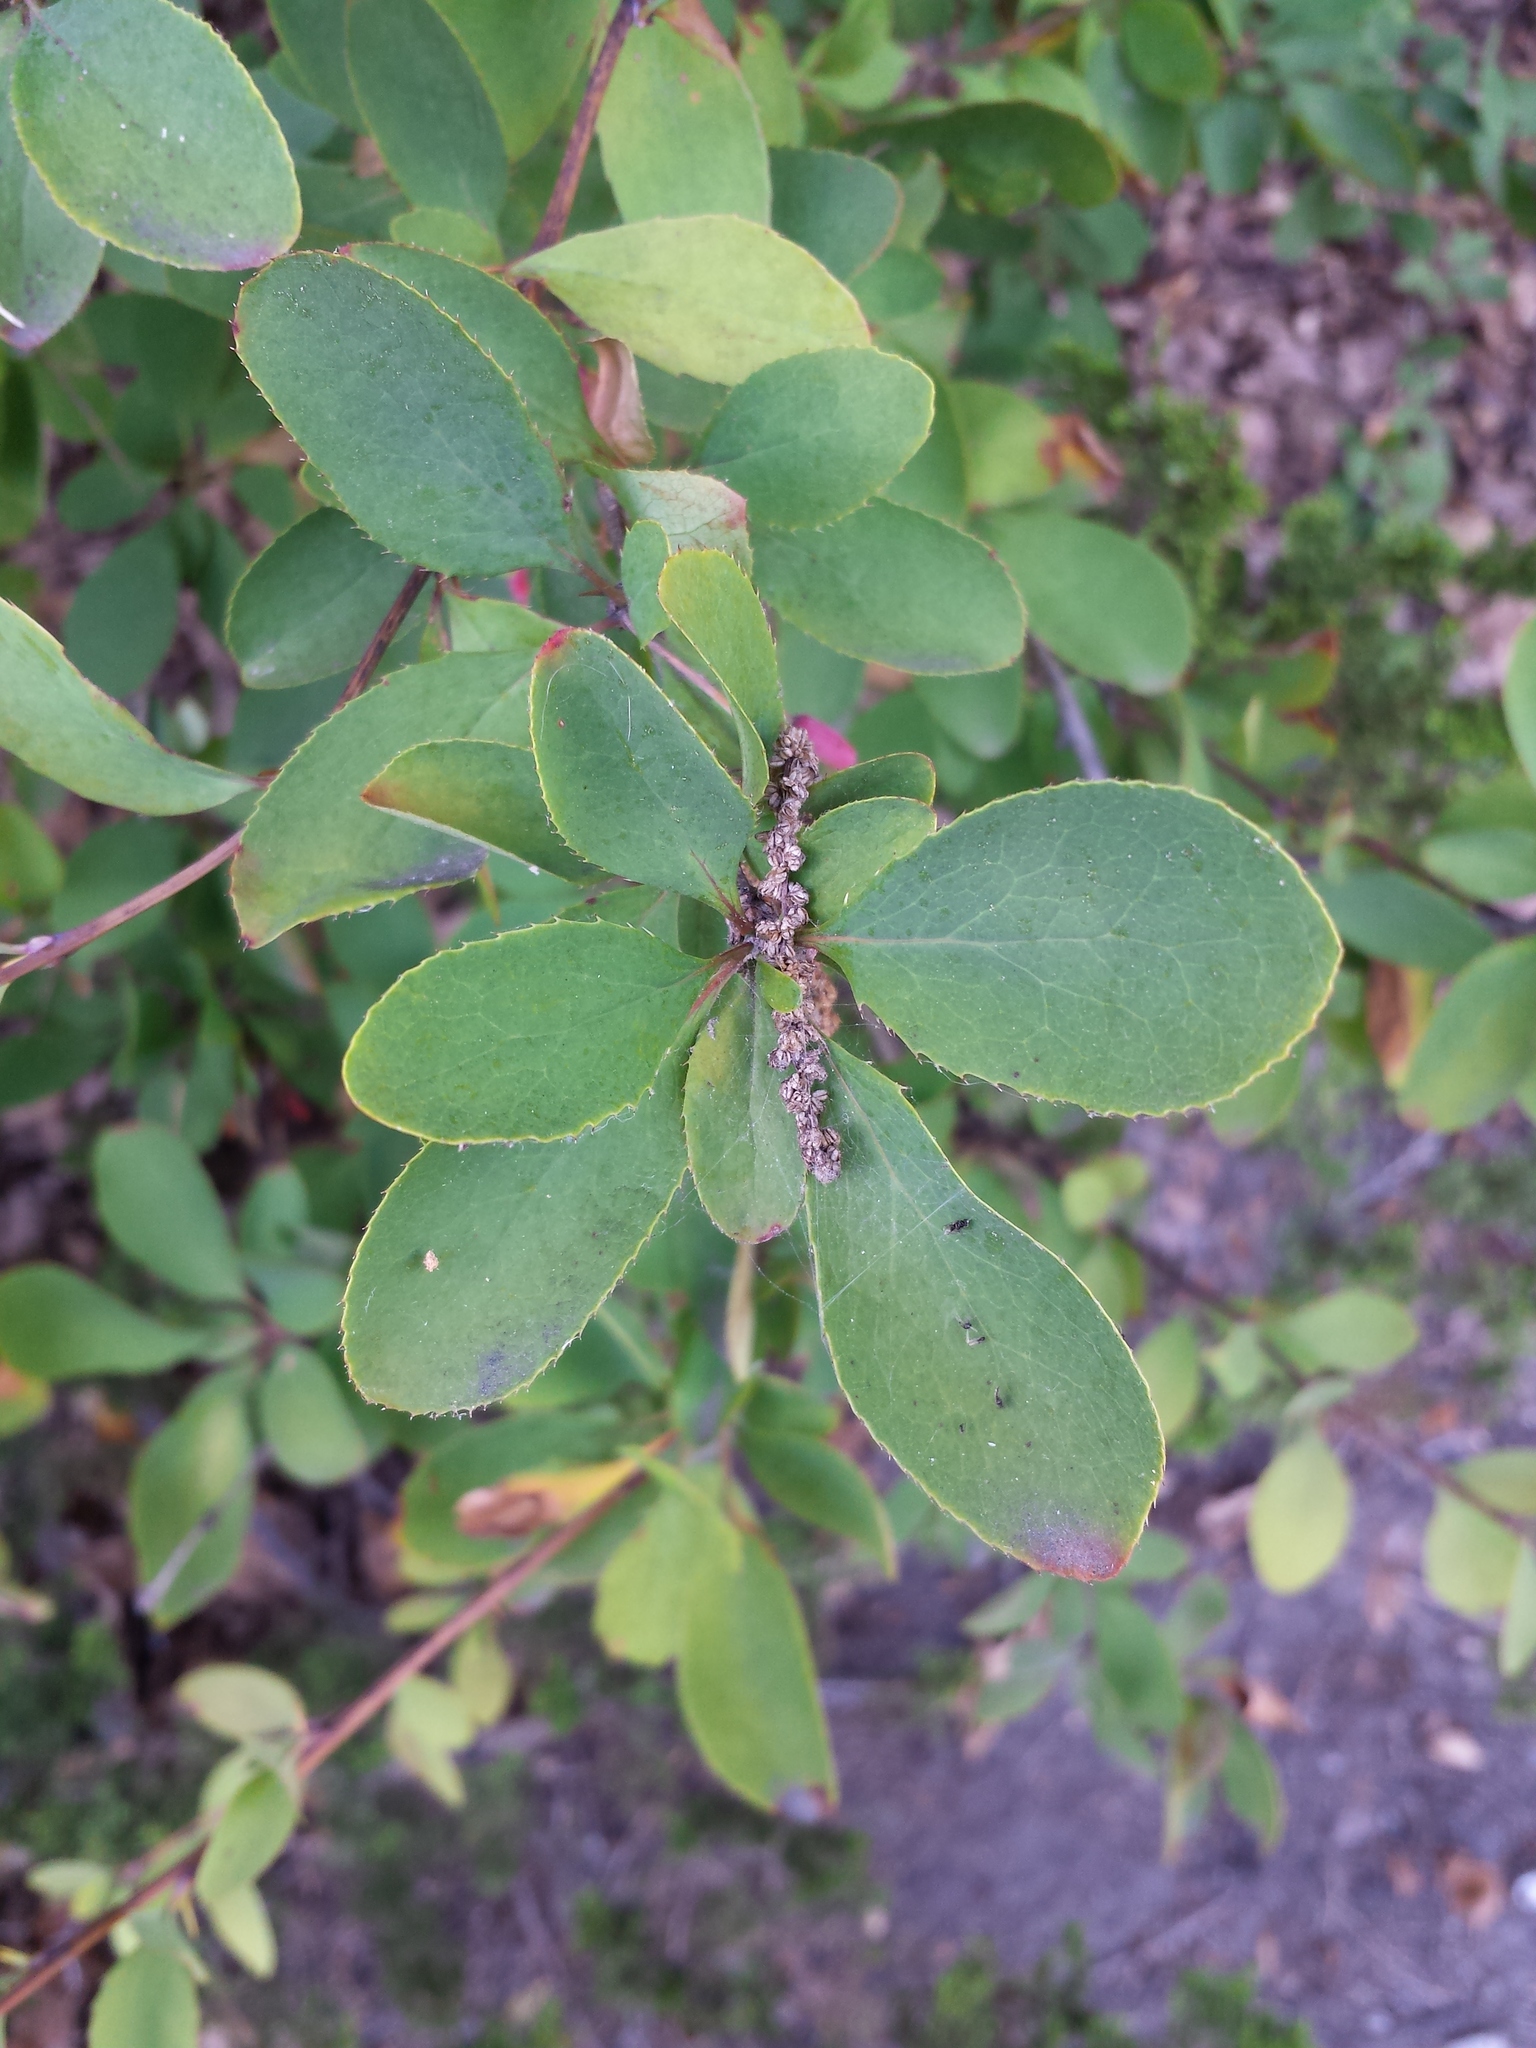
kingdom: Plantae
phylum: Tracheophyta
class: Magnoliopsida
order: Ranunculales
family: Berberidaceae
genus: Berberis
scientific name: Berberis vulgaris
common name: Barberry
